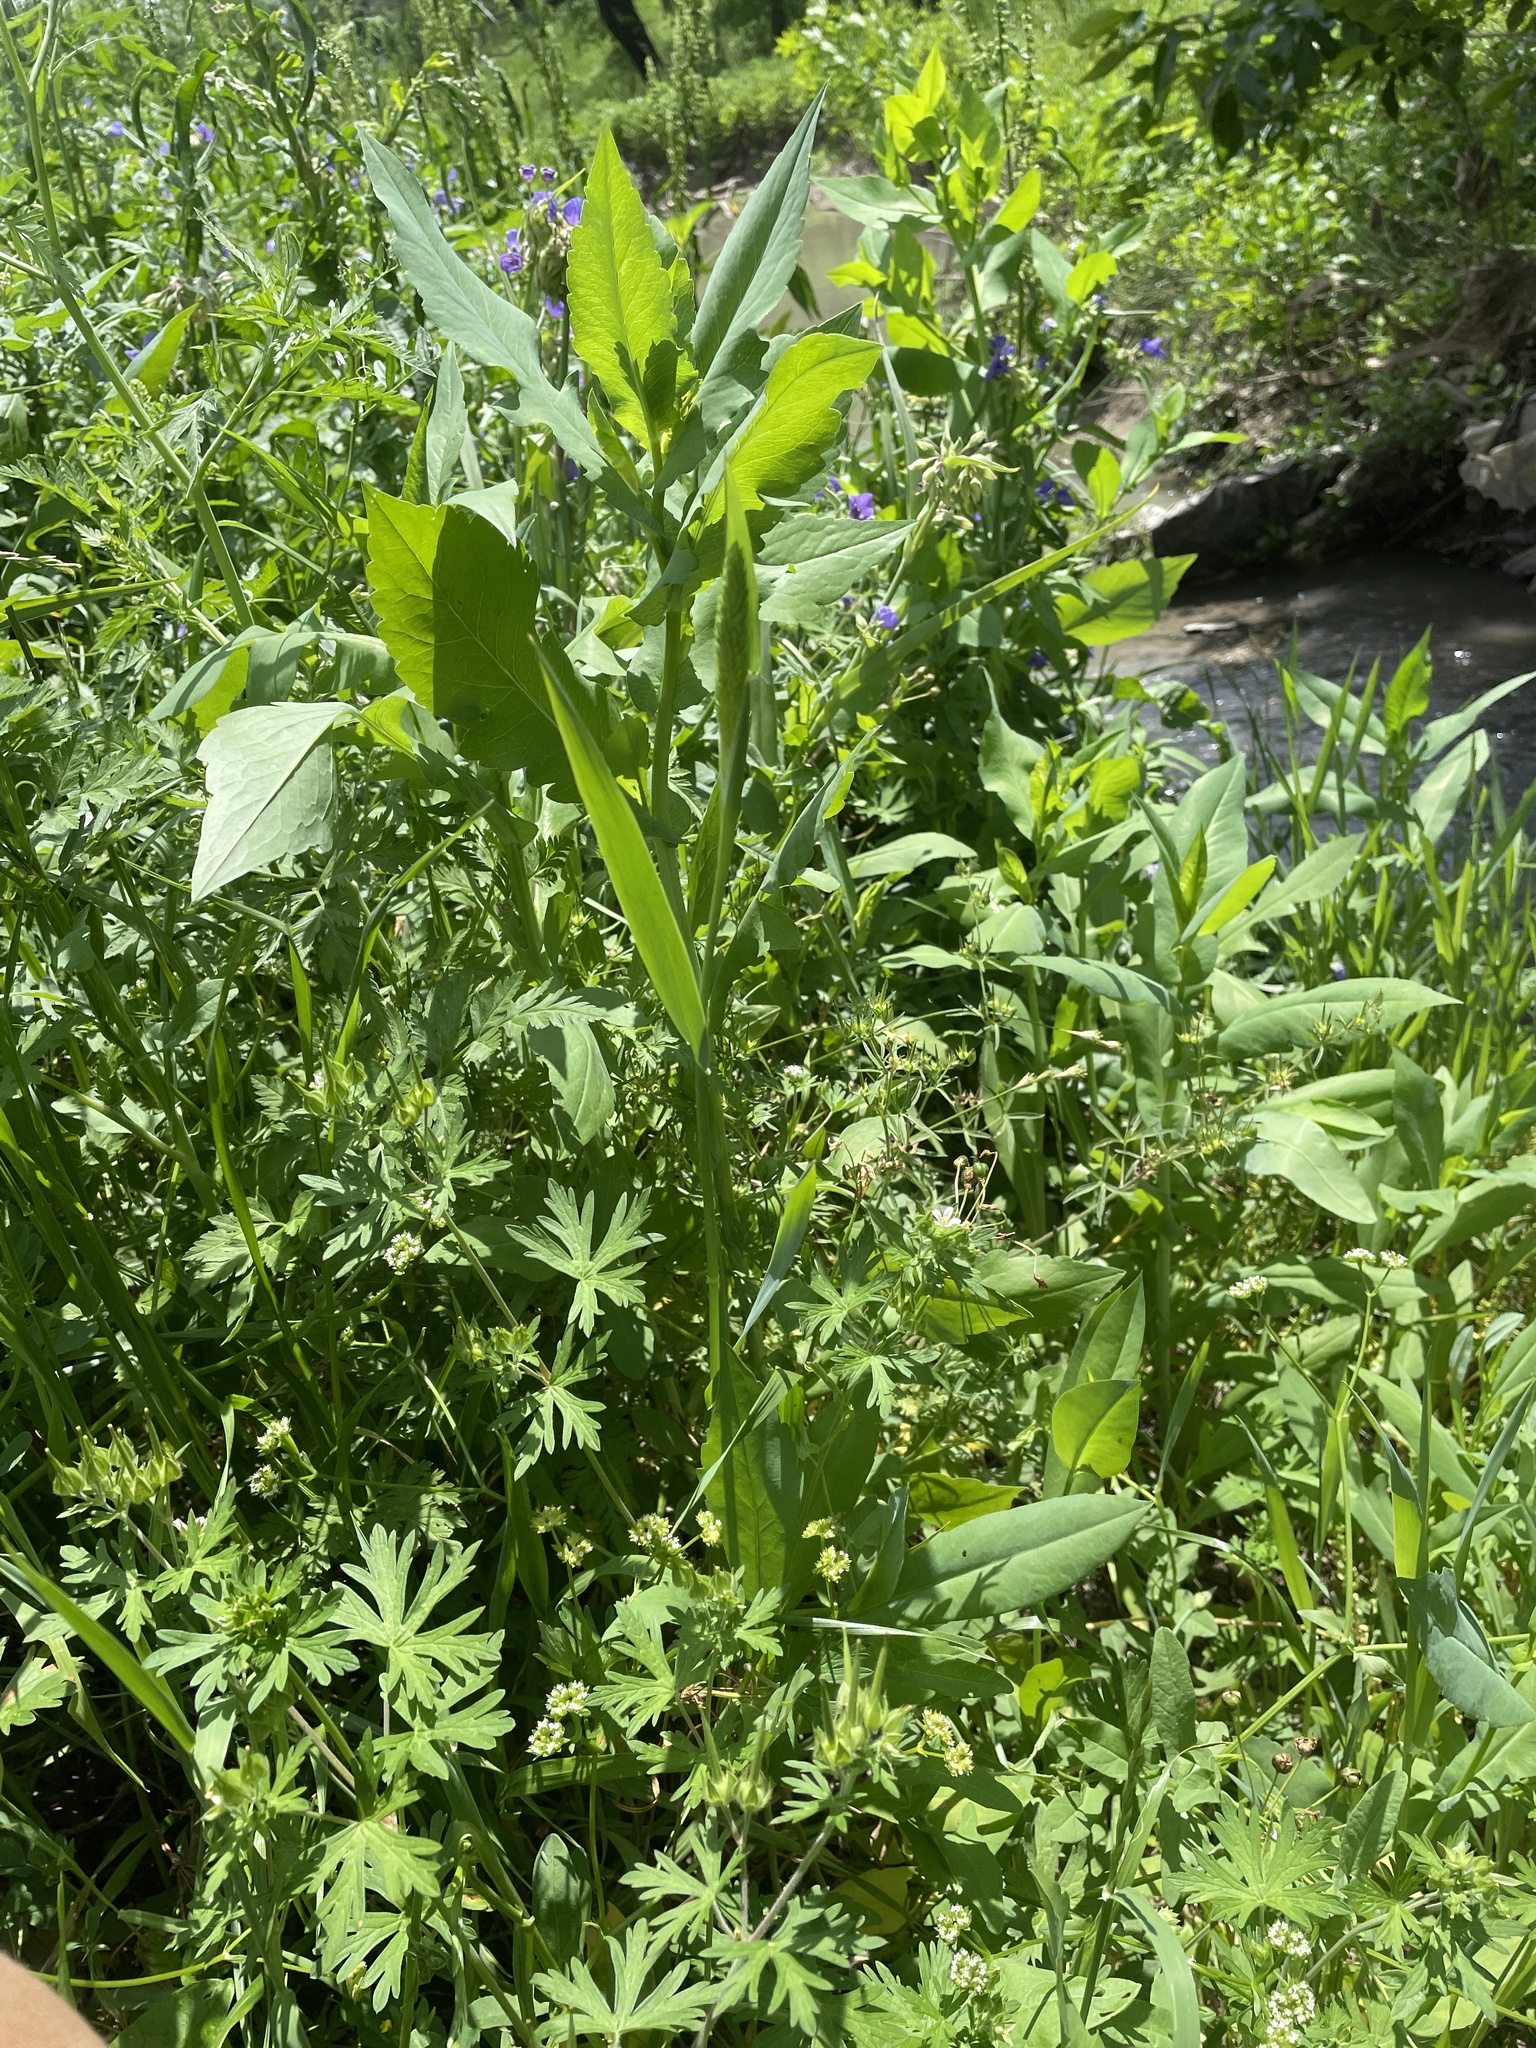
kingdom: Plantae
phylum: Tracheophyta
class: Liliopsida
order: Poales
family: Poaceae
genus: Phalaris
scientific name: Phalaris caroliniana
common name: May grass
